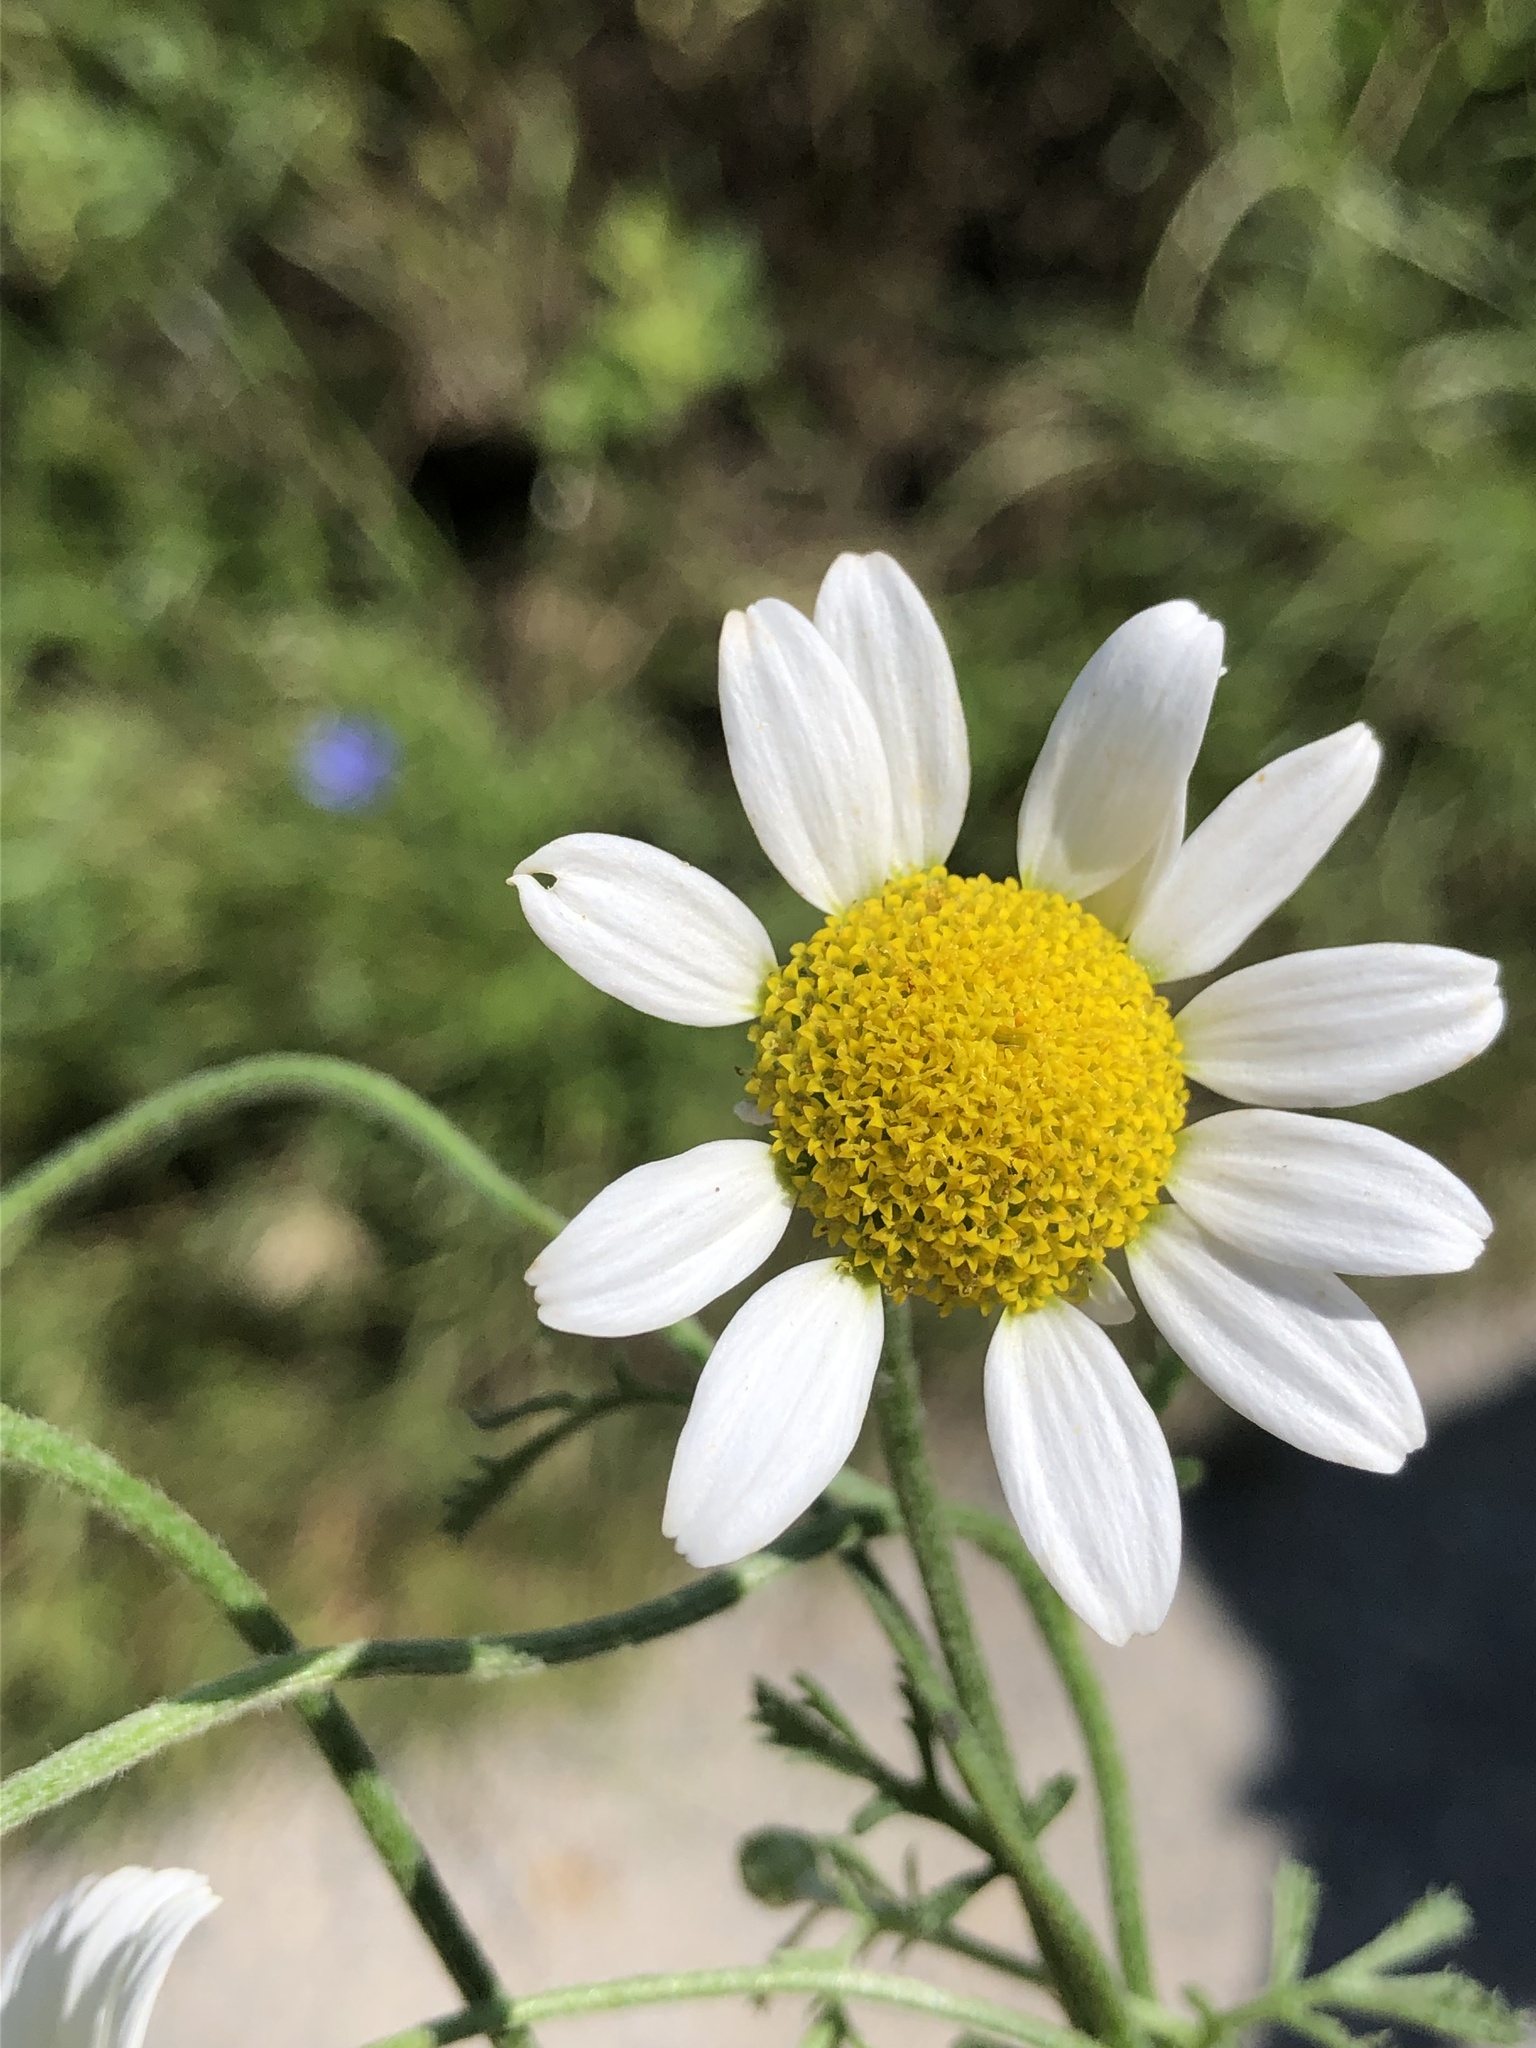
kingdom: Plantae
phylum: Tracheophyta
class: Magnoliopsida
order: Asterales
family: Asteraceae
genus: Cota
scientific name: Cota austriaca
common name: Austrian chamomile
